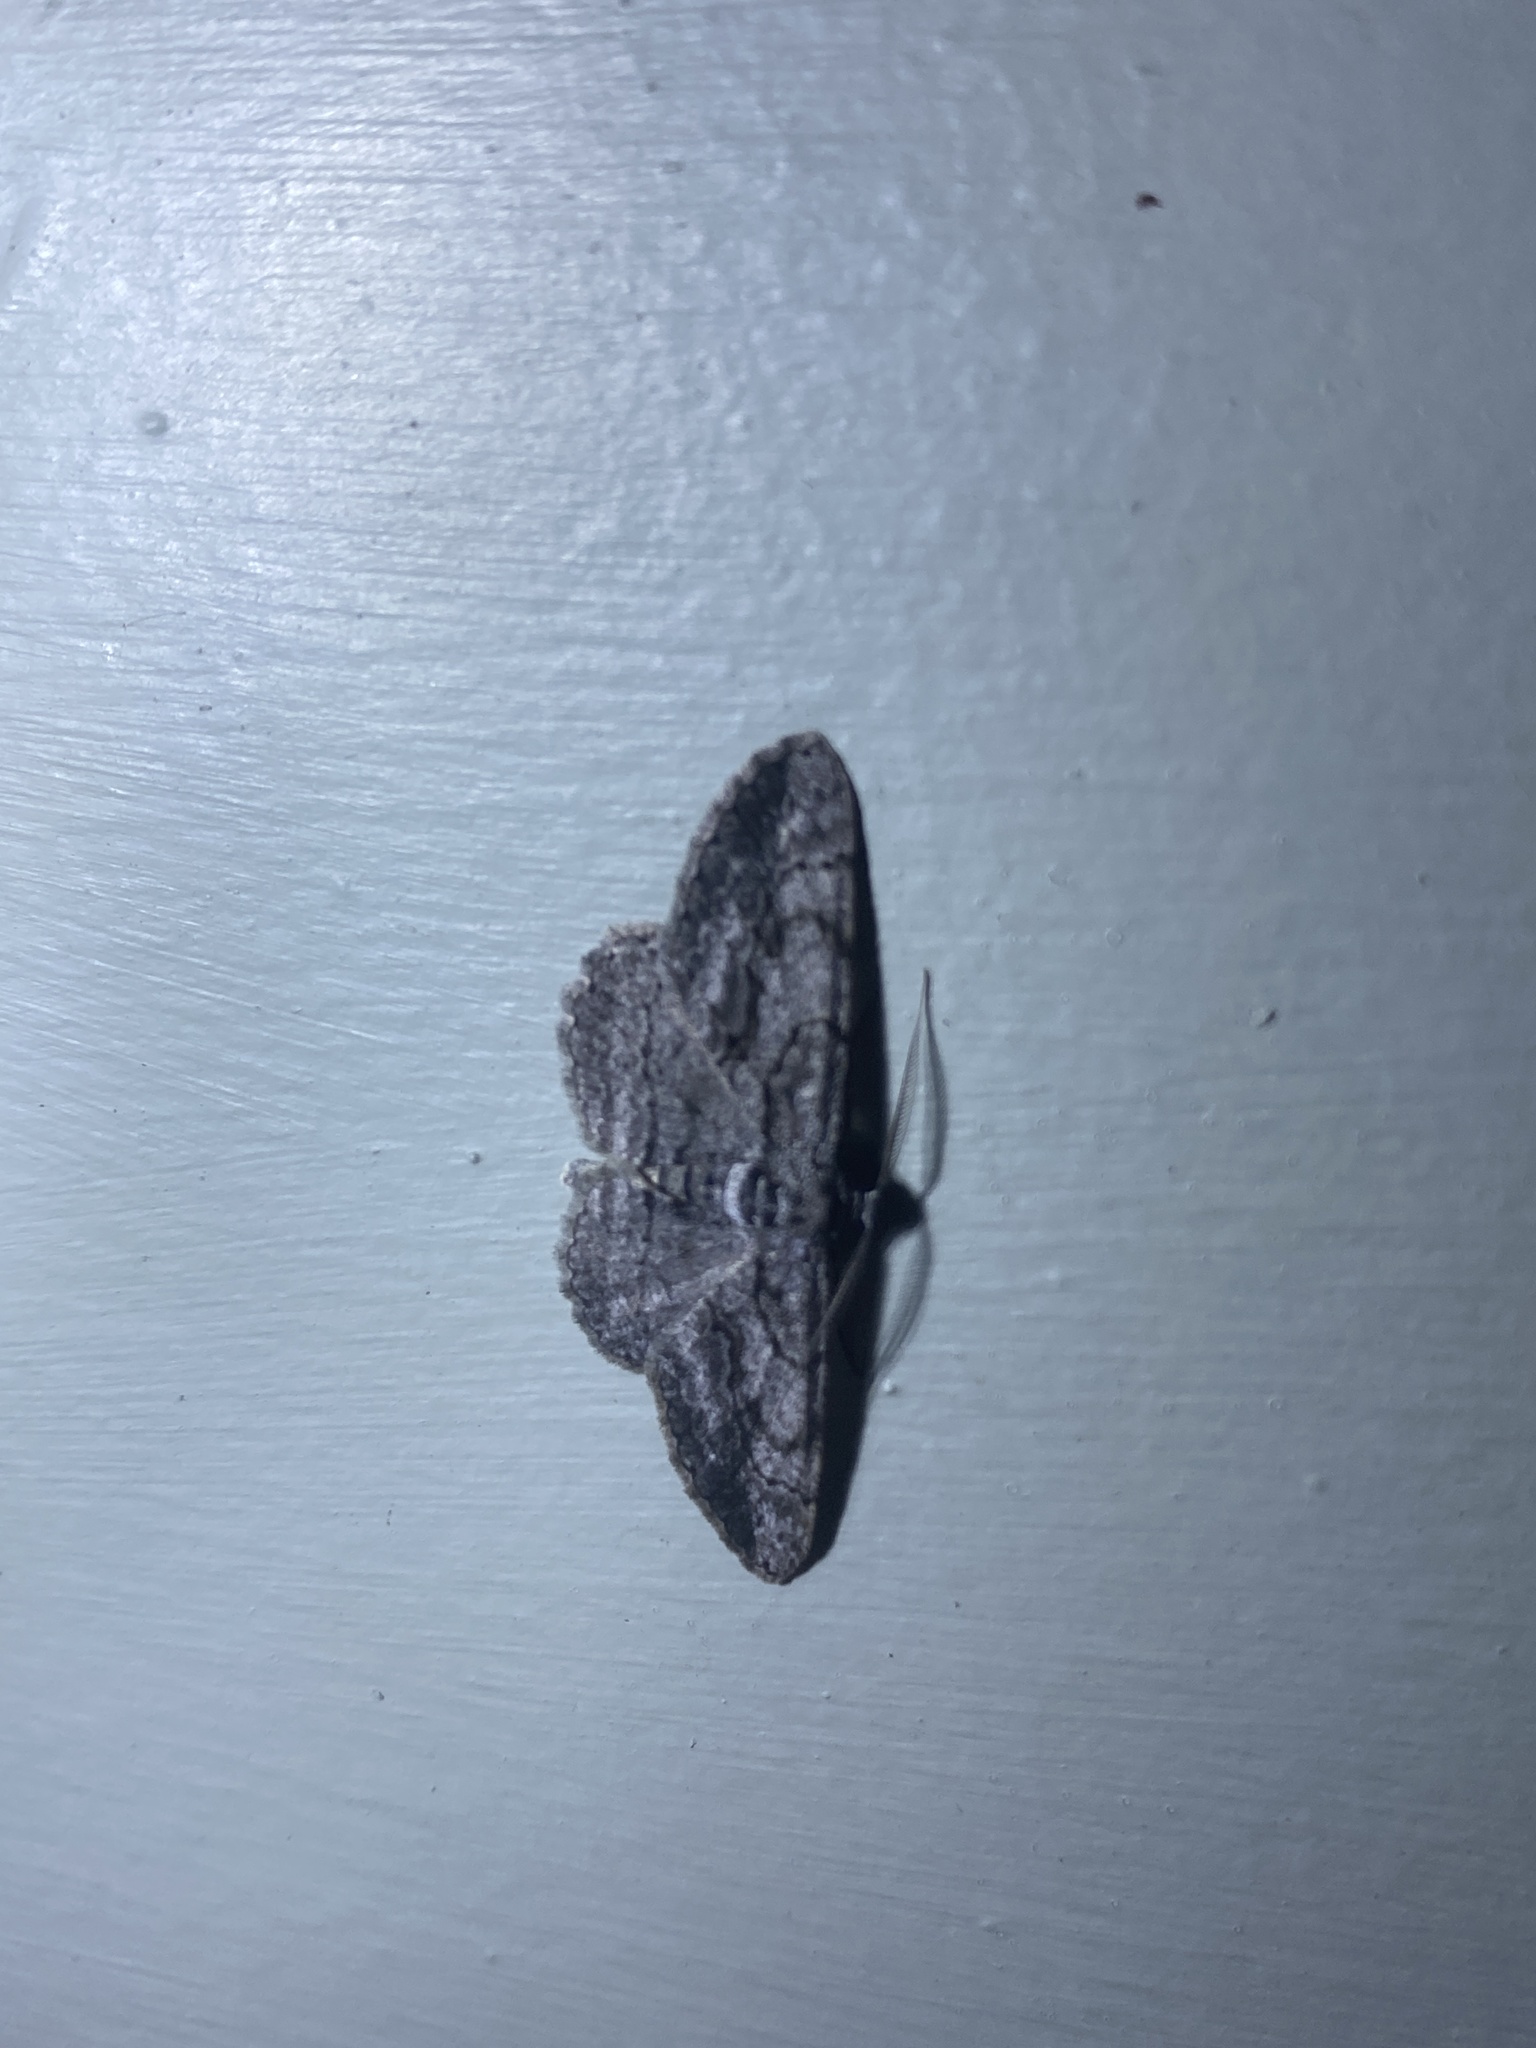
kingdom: Animalia
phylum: Arthropoda
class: Insecta
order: Lepidoptera
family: Geometridae
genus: Anavitrinella
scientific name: Anavitrinella pampinaria
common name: Common gray
